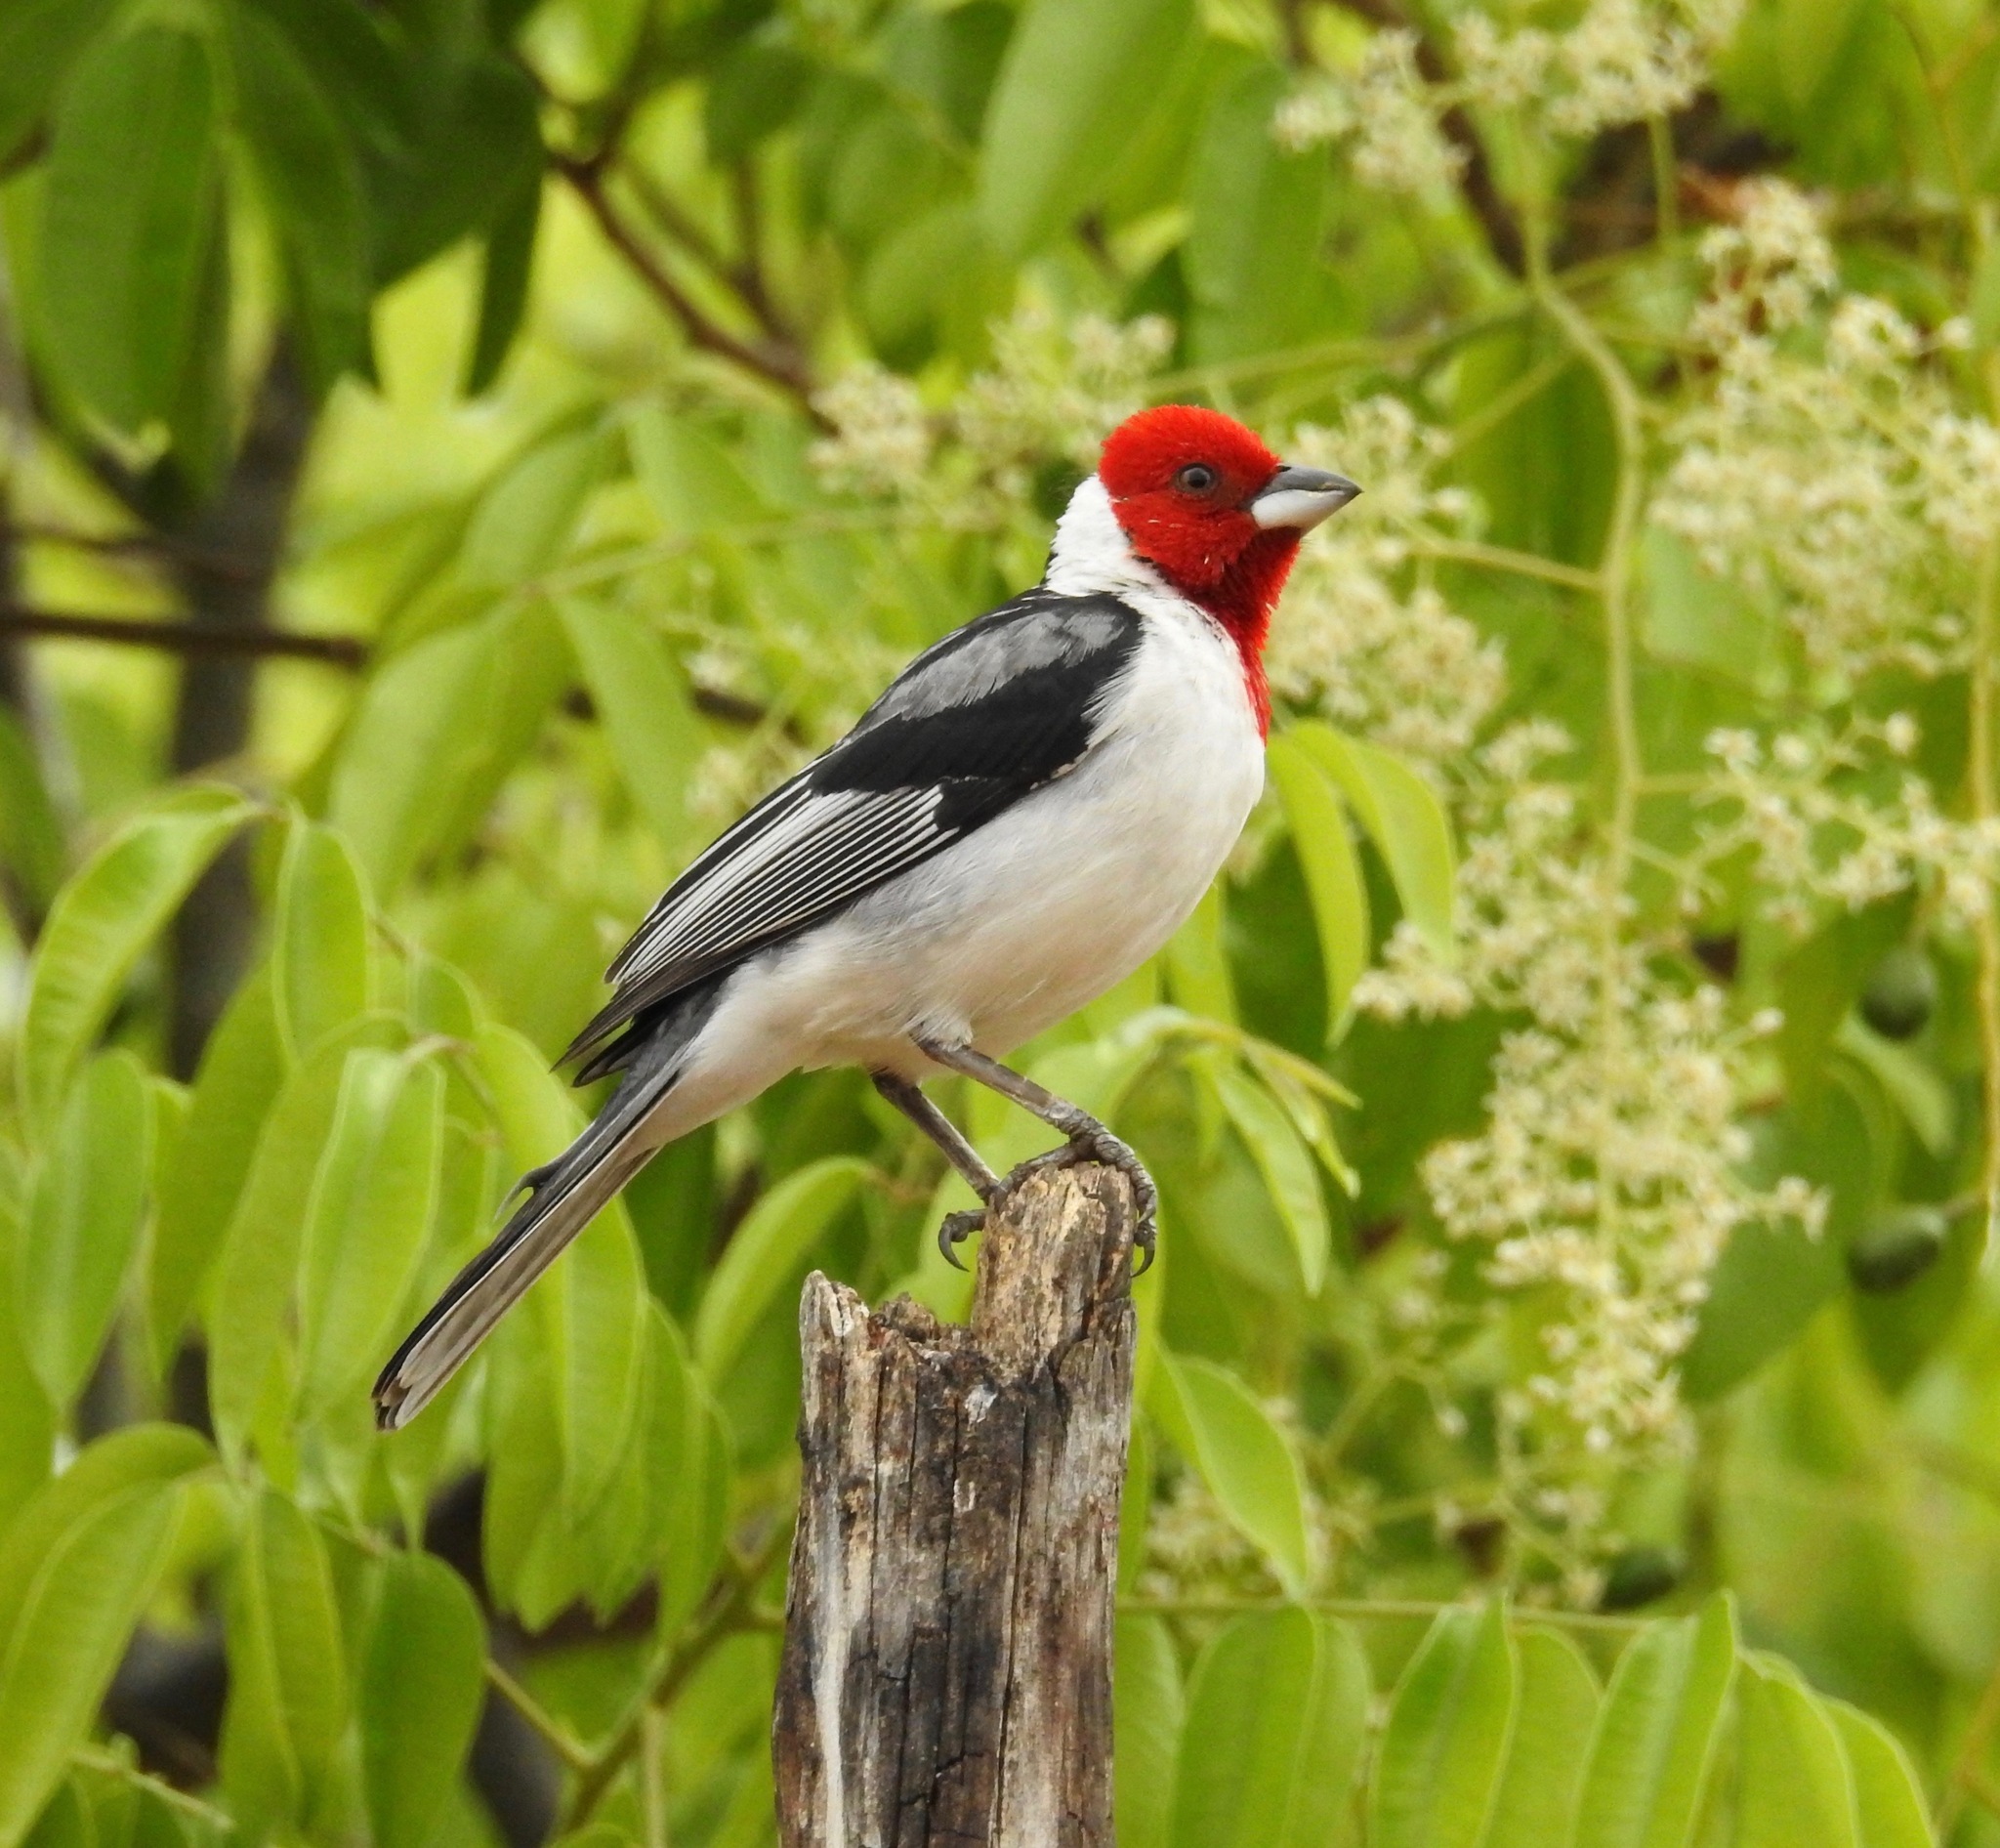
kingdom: Animalia
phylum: Chordata
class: Aves
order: Passeriformes
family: Thraupidae
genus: Paroaria
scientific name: Paroaria dominicana
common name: Red-cowled cardinal
